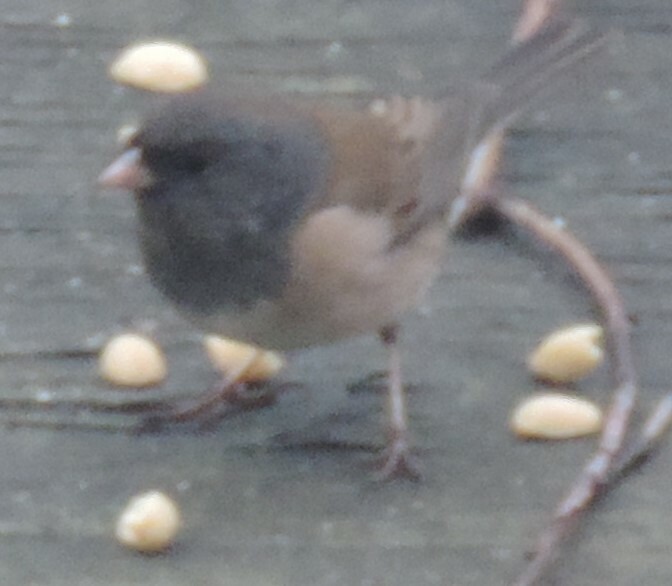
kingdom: Animalia
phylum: Chordata
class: Aves
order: Passeriformes
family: Passerellidae
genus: Junco
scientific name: Junco hyemalis
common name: Dark-eyed junco
